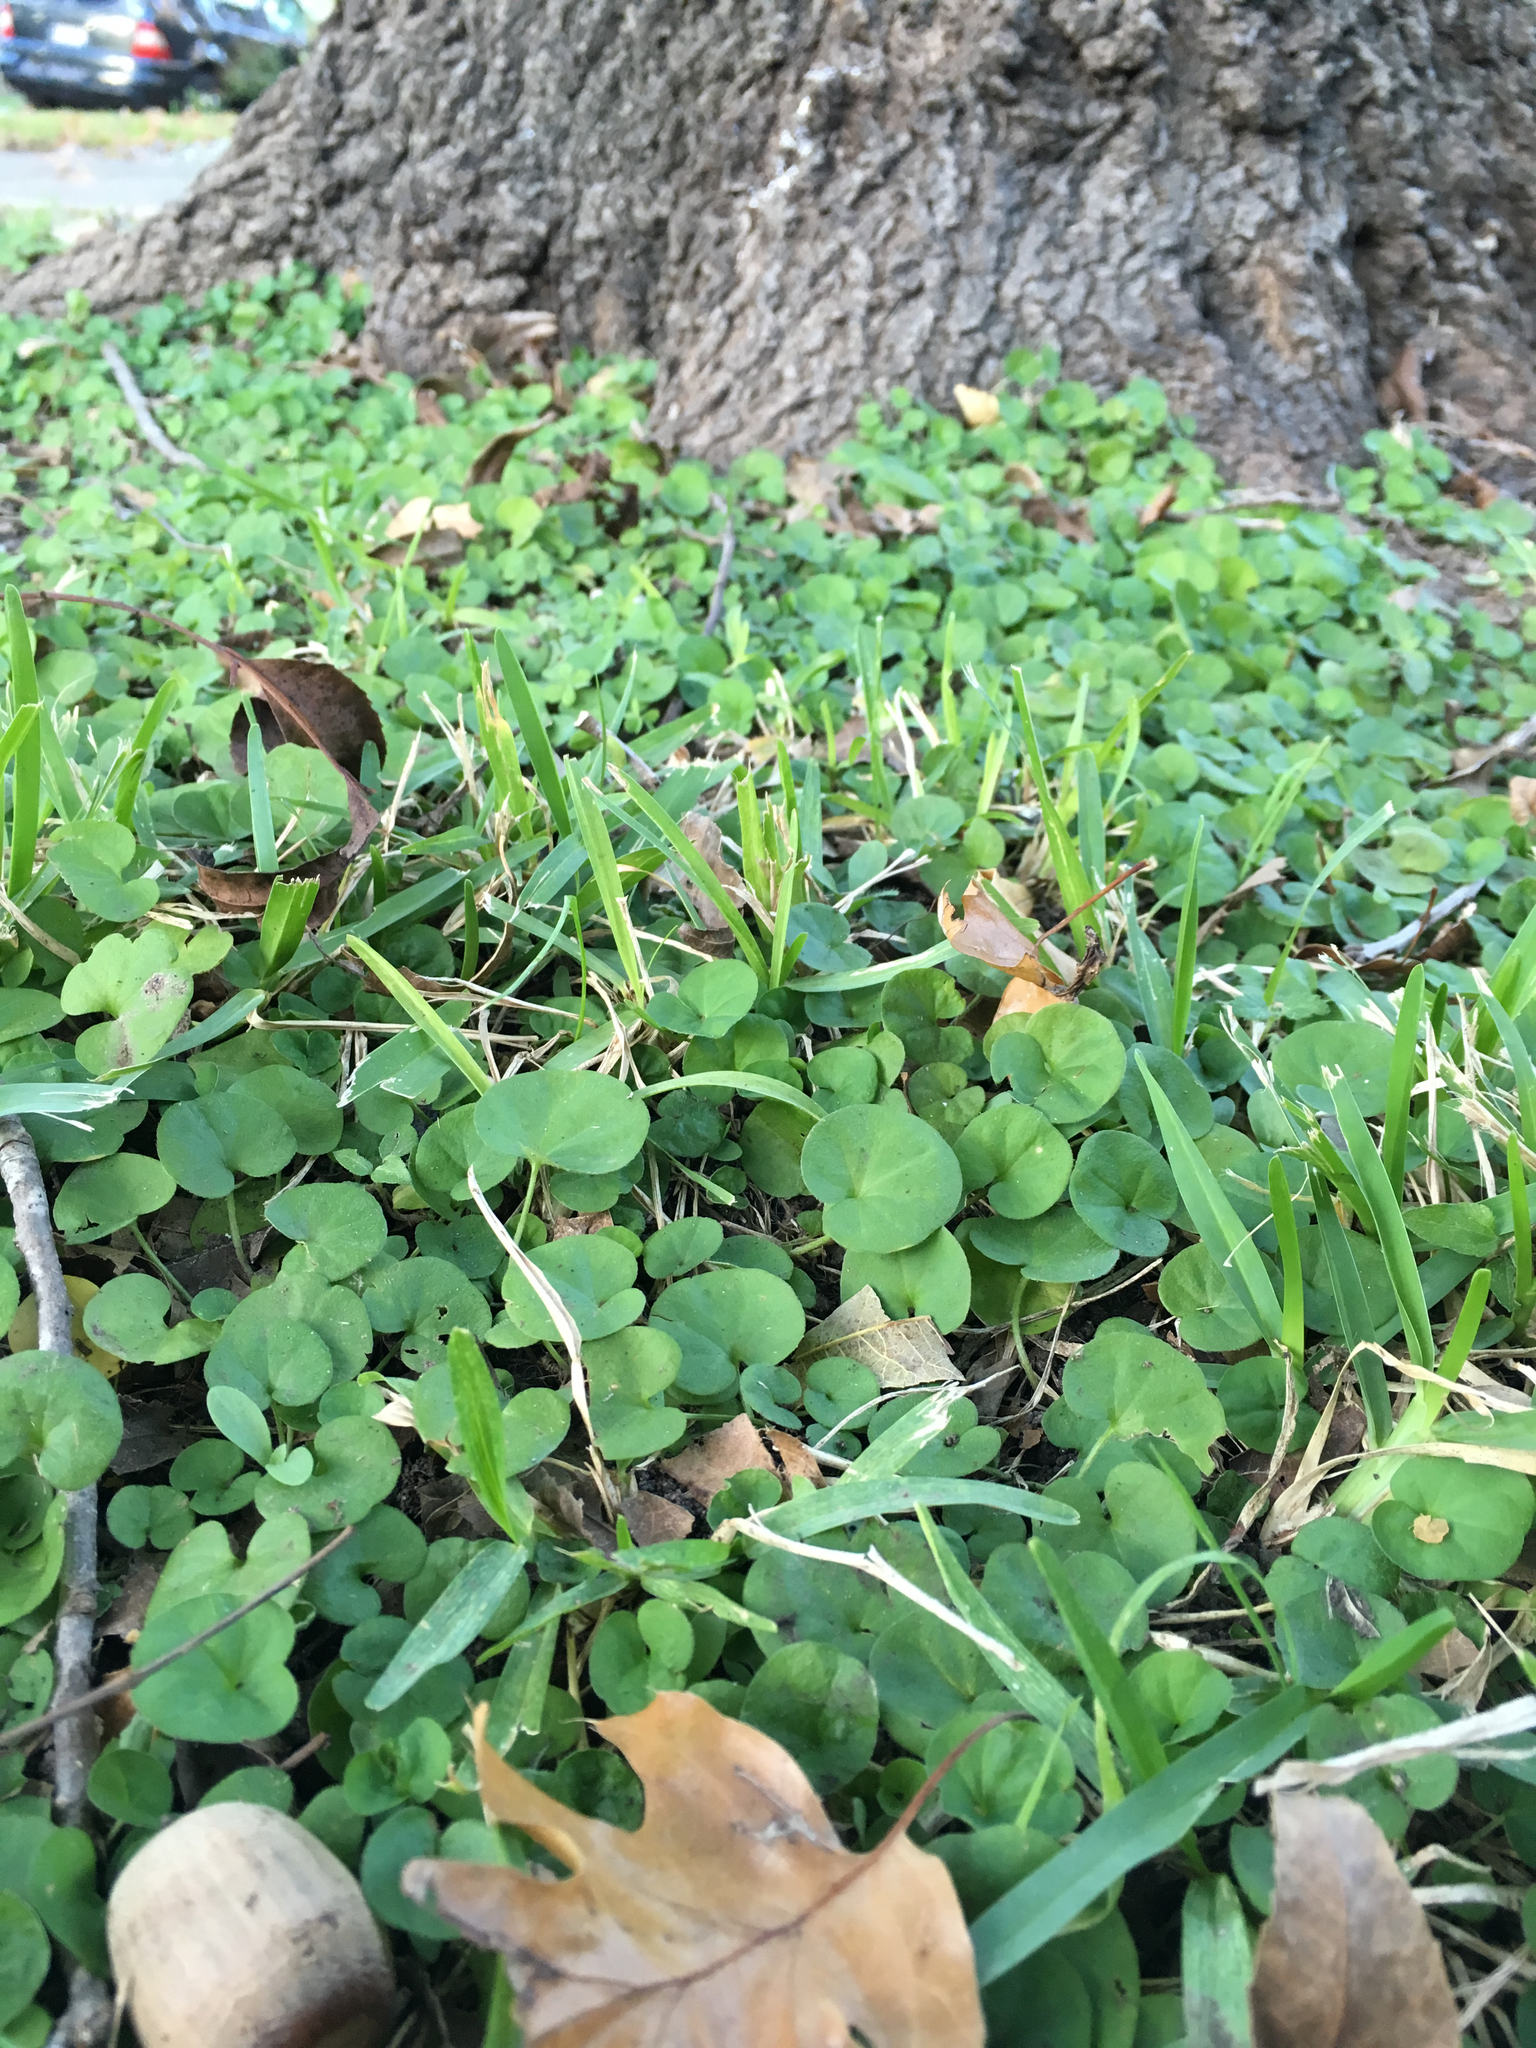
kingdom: Plantae
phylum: Tracheophyta
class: Magnoliopsida
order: Solanales
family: Convolvulaceae
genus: Dichondra
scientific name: Dichondra carolinensis
